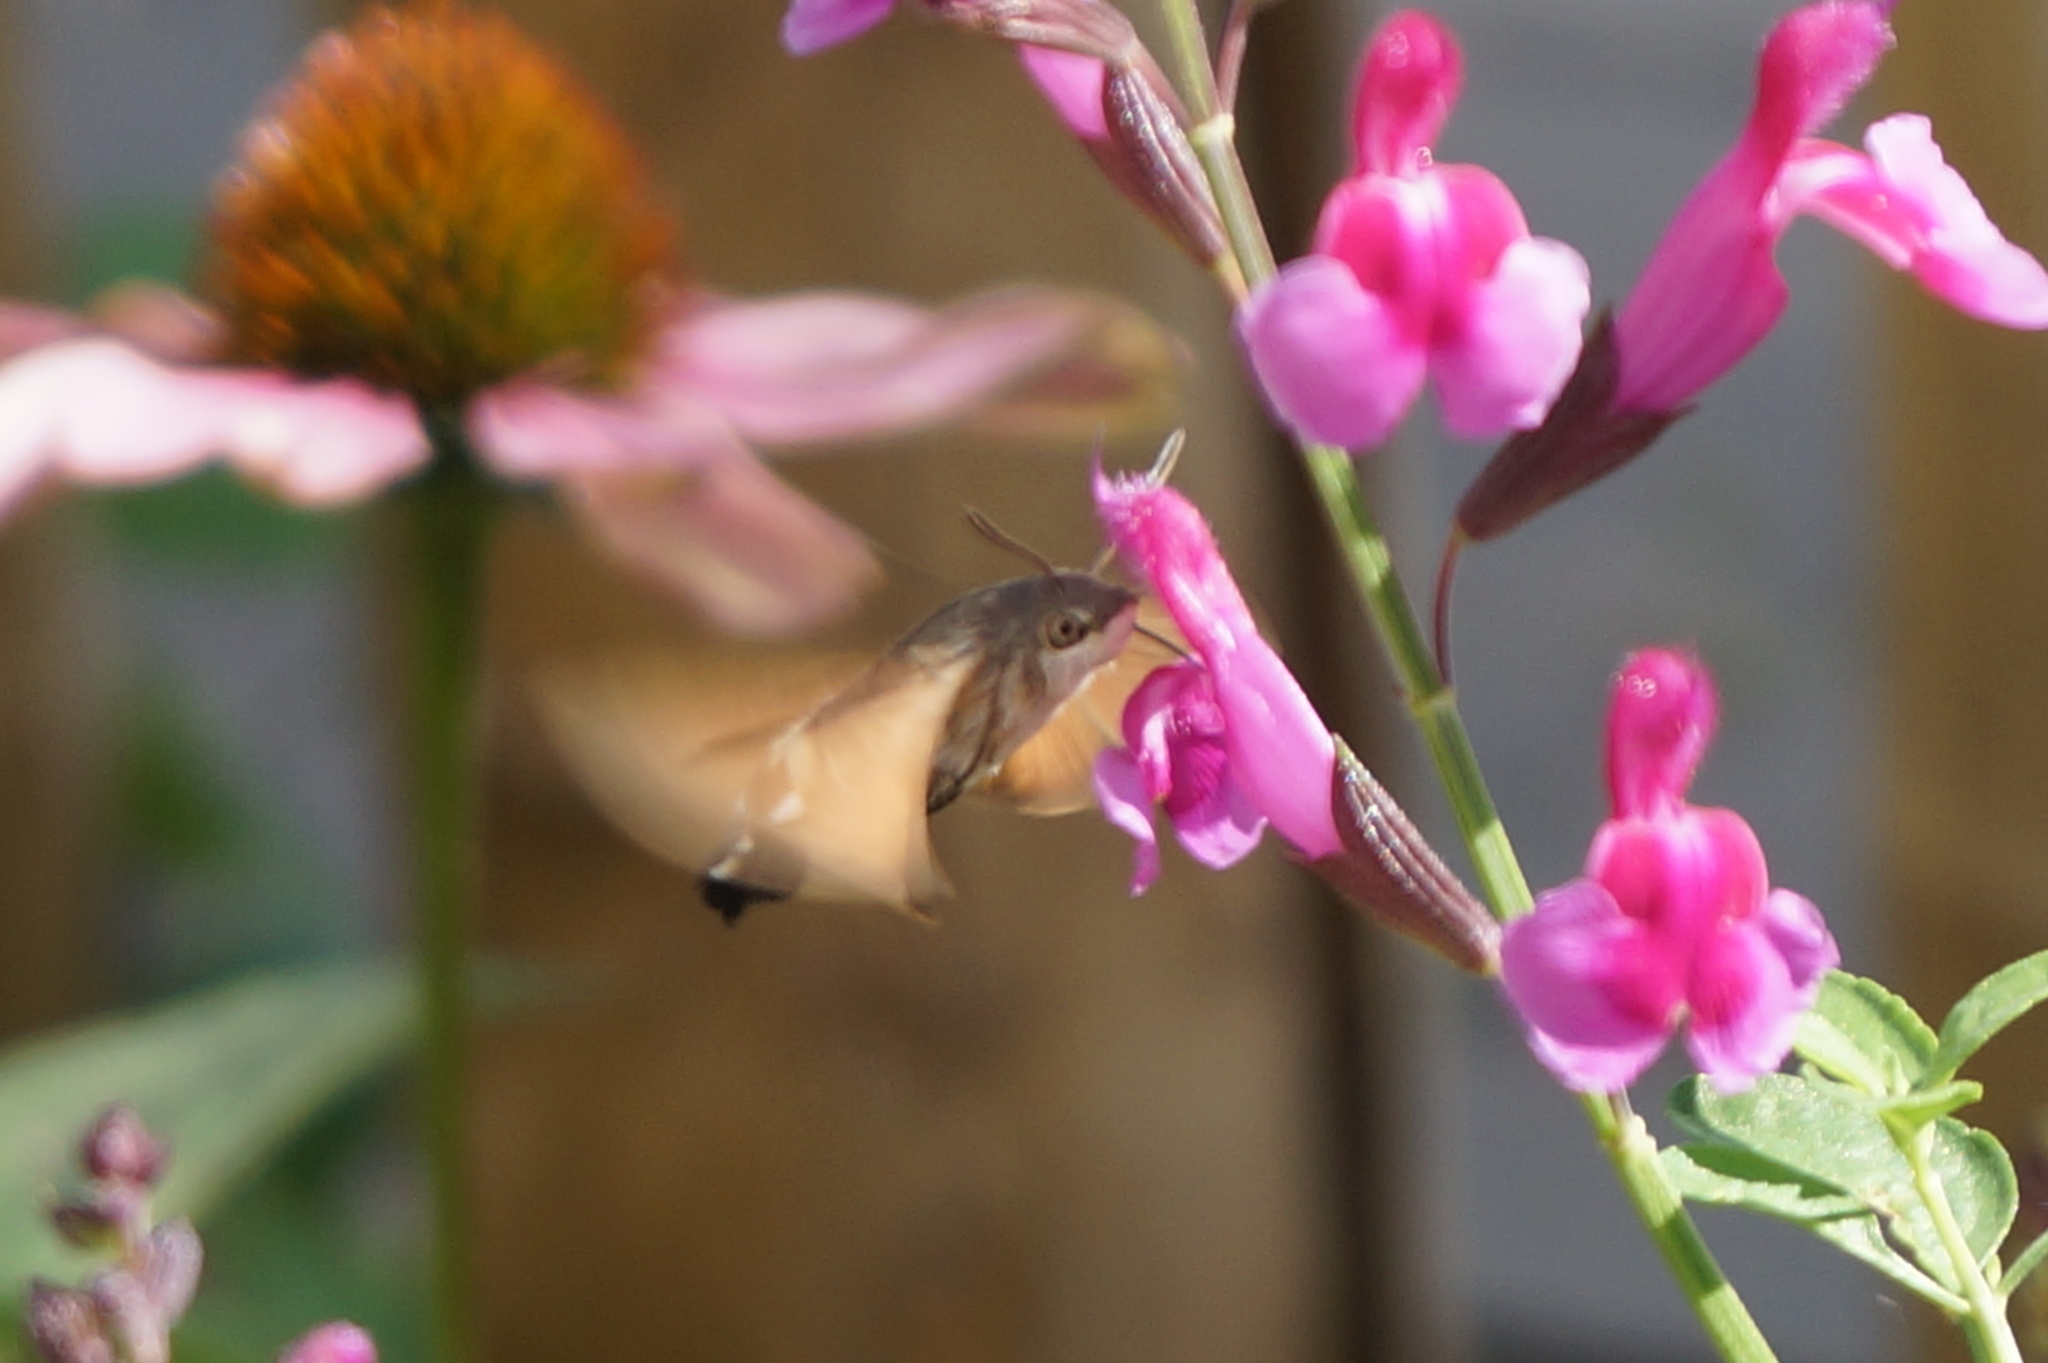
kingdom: Animalia
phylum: Arthropoda
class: Insecta
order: Lepidoptera
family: Sphingidae
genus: Macroglossum
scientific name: Macroglossum stellatarum
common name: Humming-bird hawk-moth
